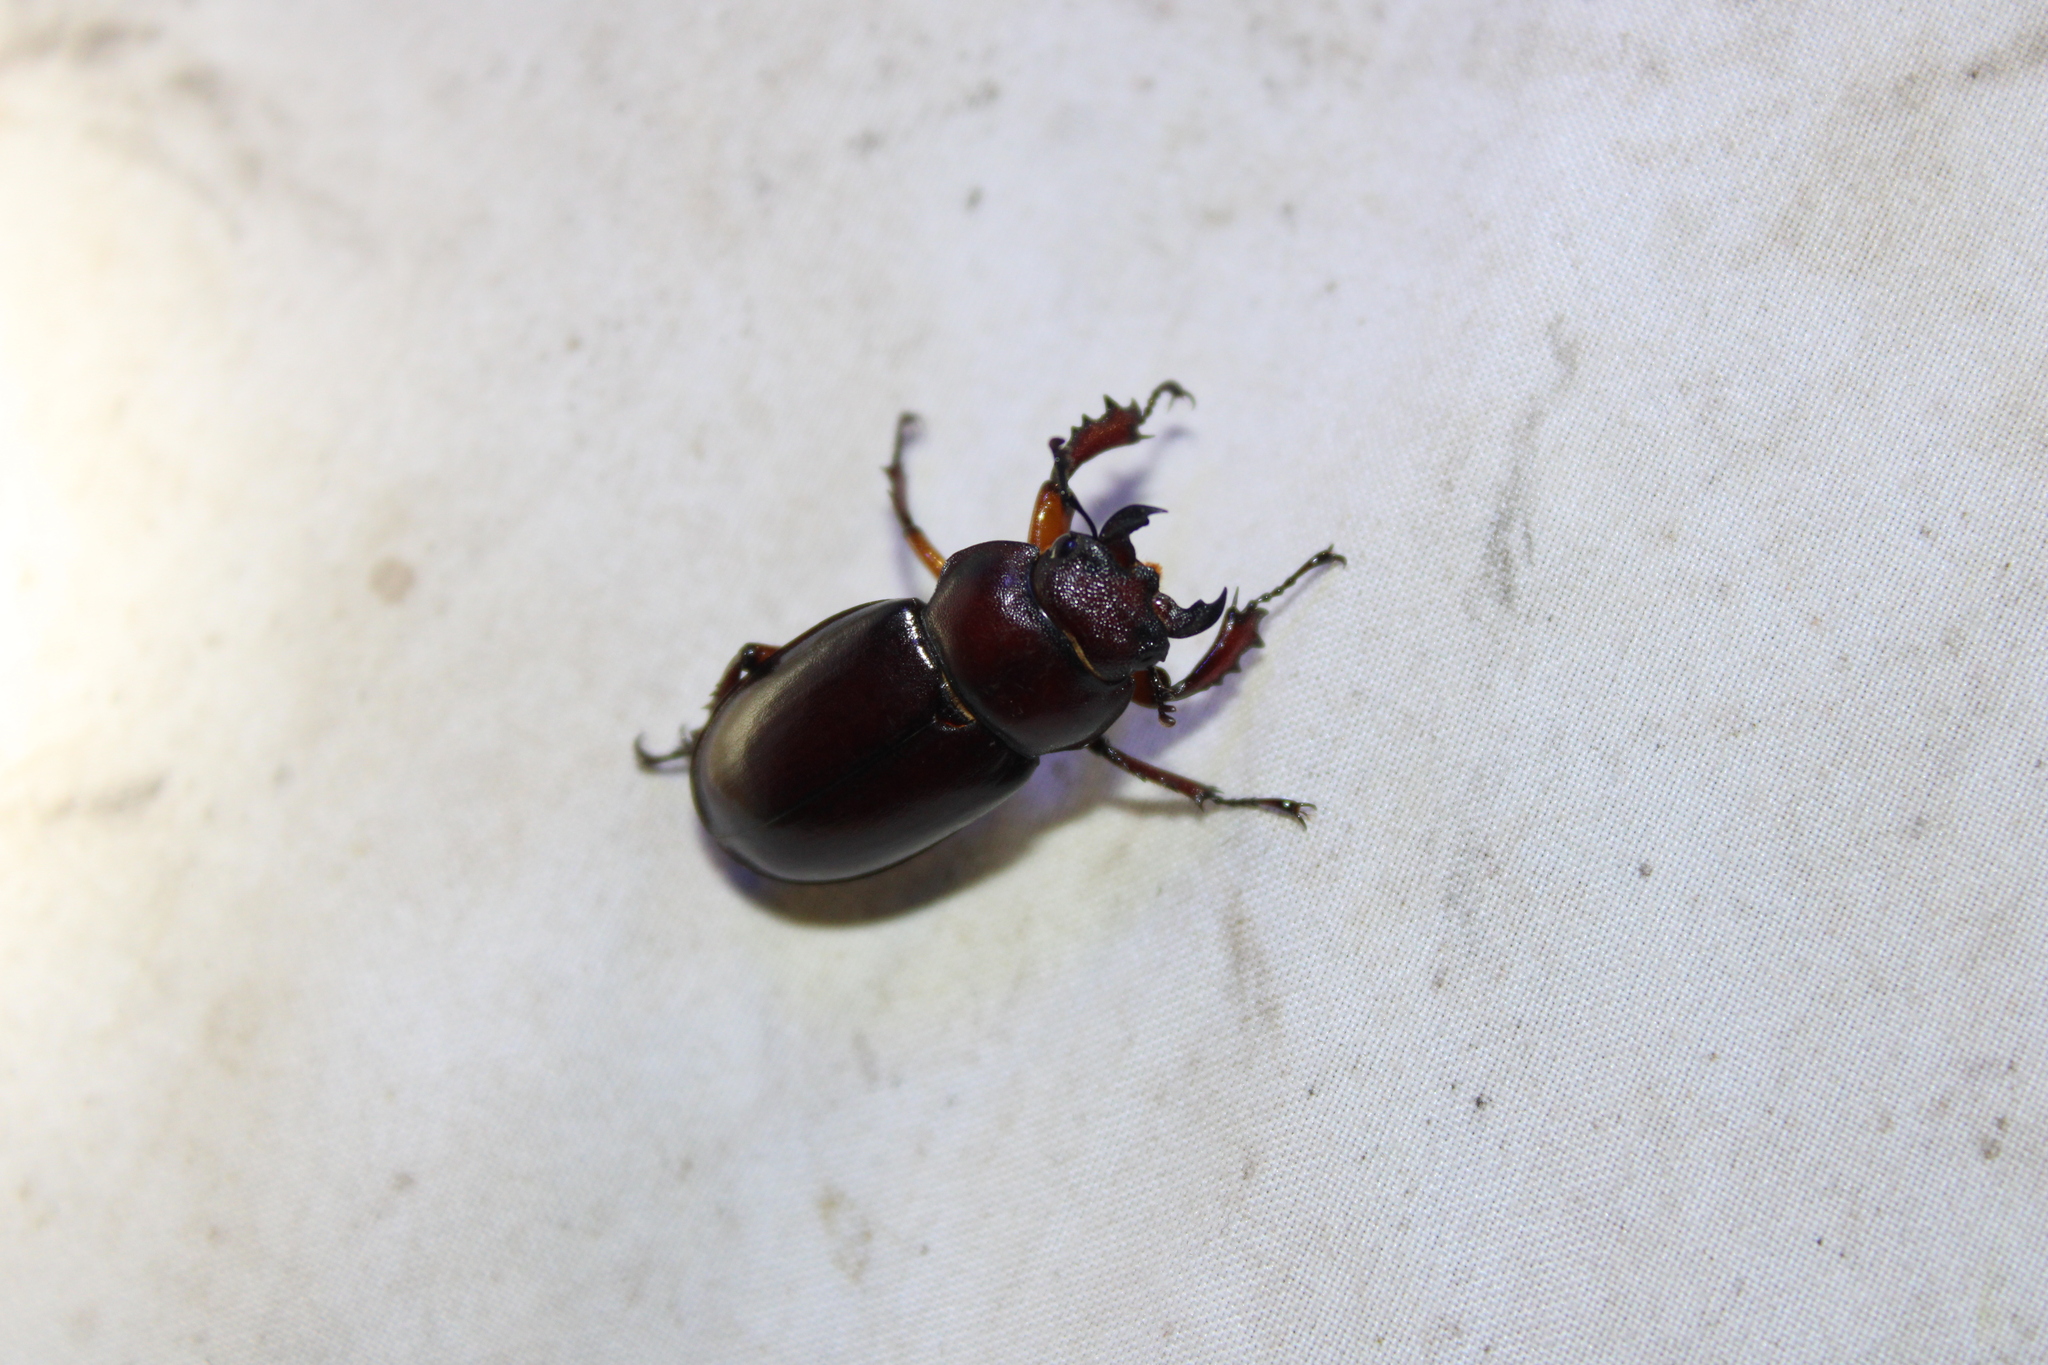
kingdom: Animalia
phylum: Arthropoda
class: Insecta
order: Coleoptera
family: Lucanidae
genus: Lucanus
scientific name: Lucanus capreolus
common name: Stag beetle
